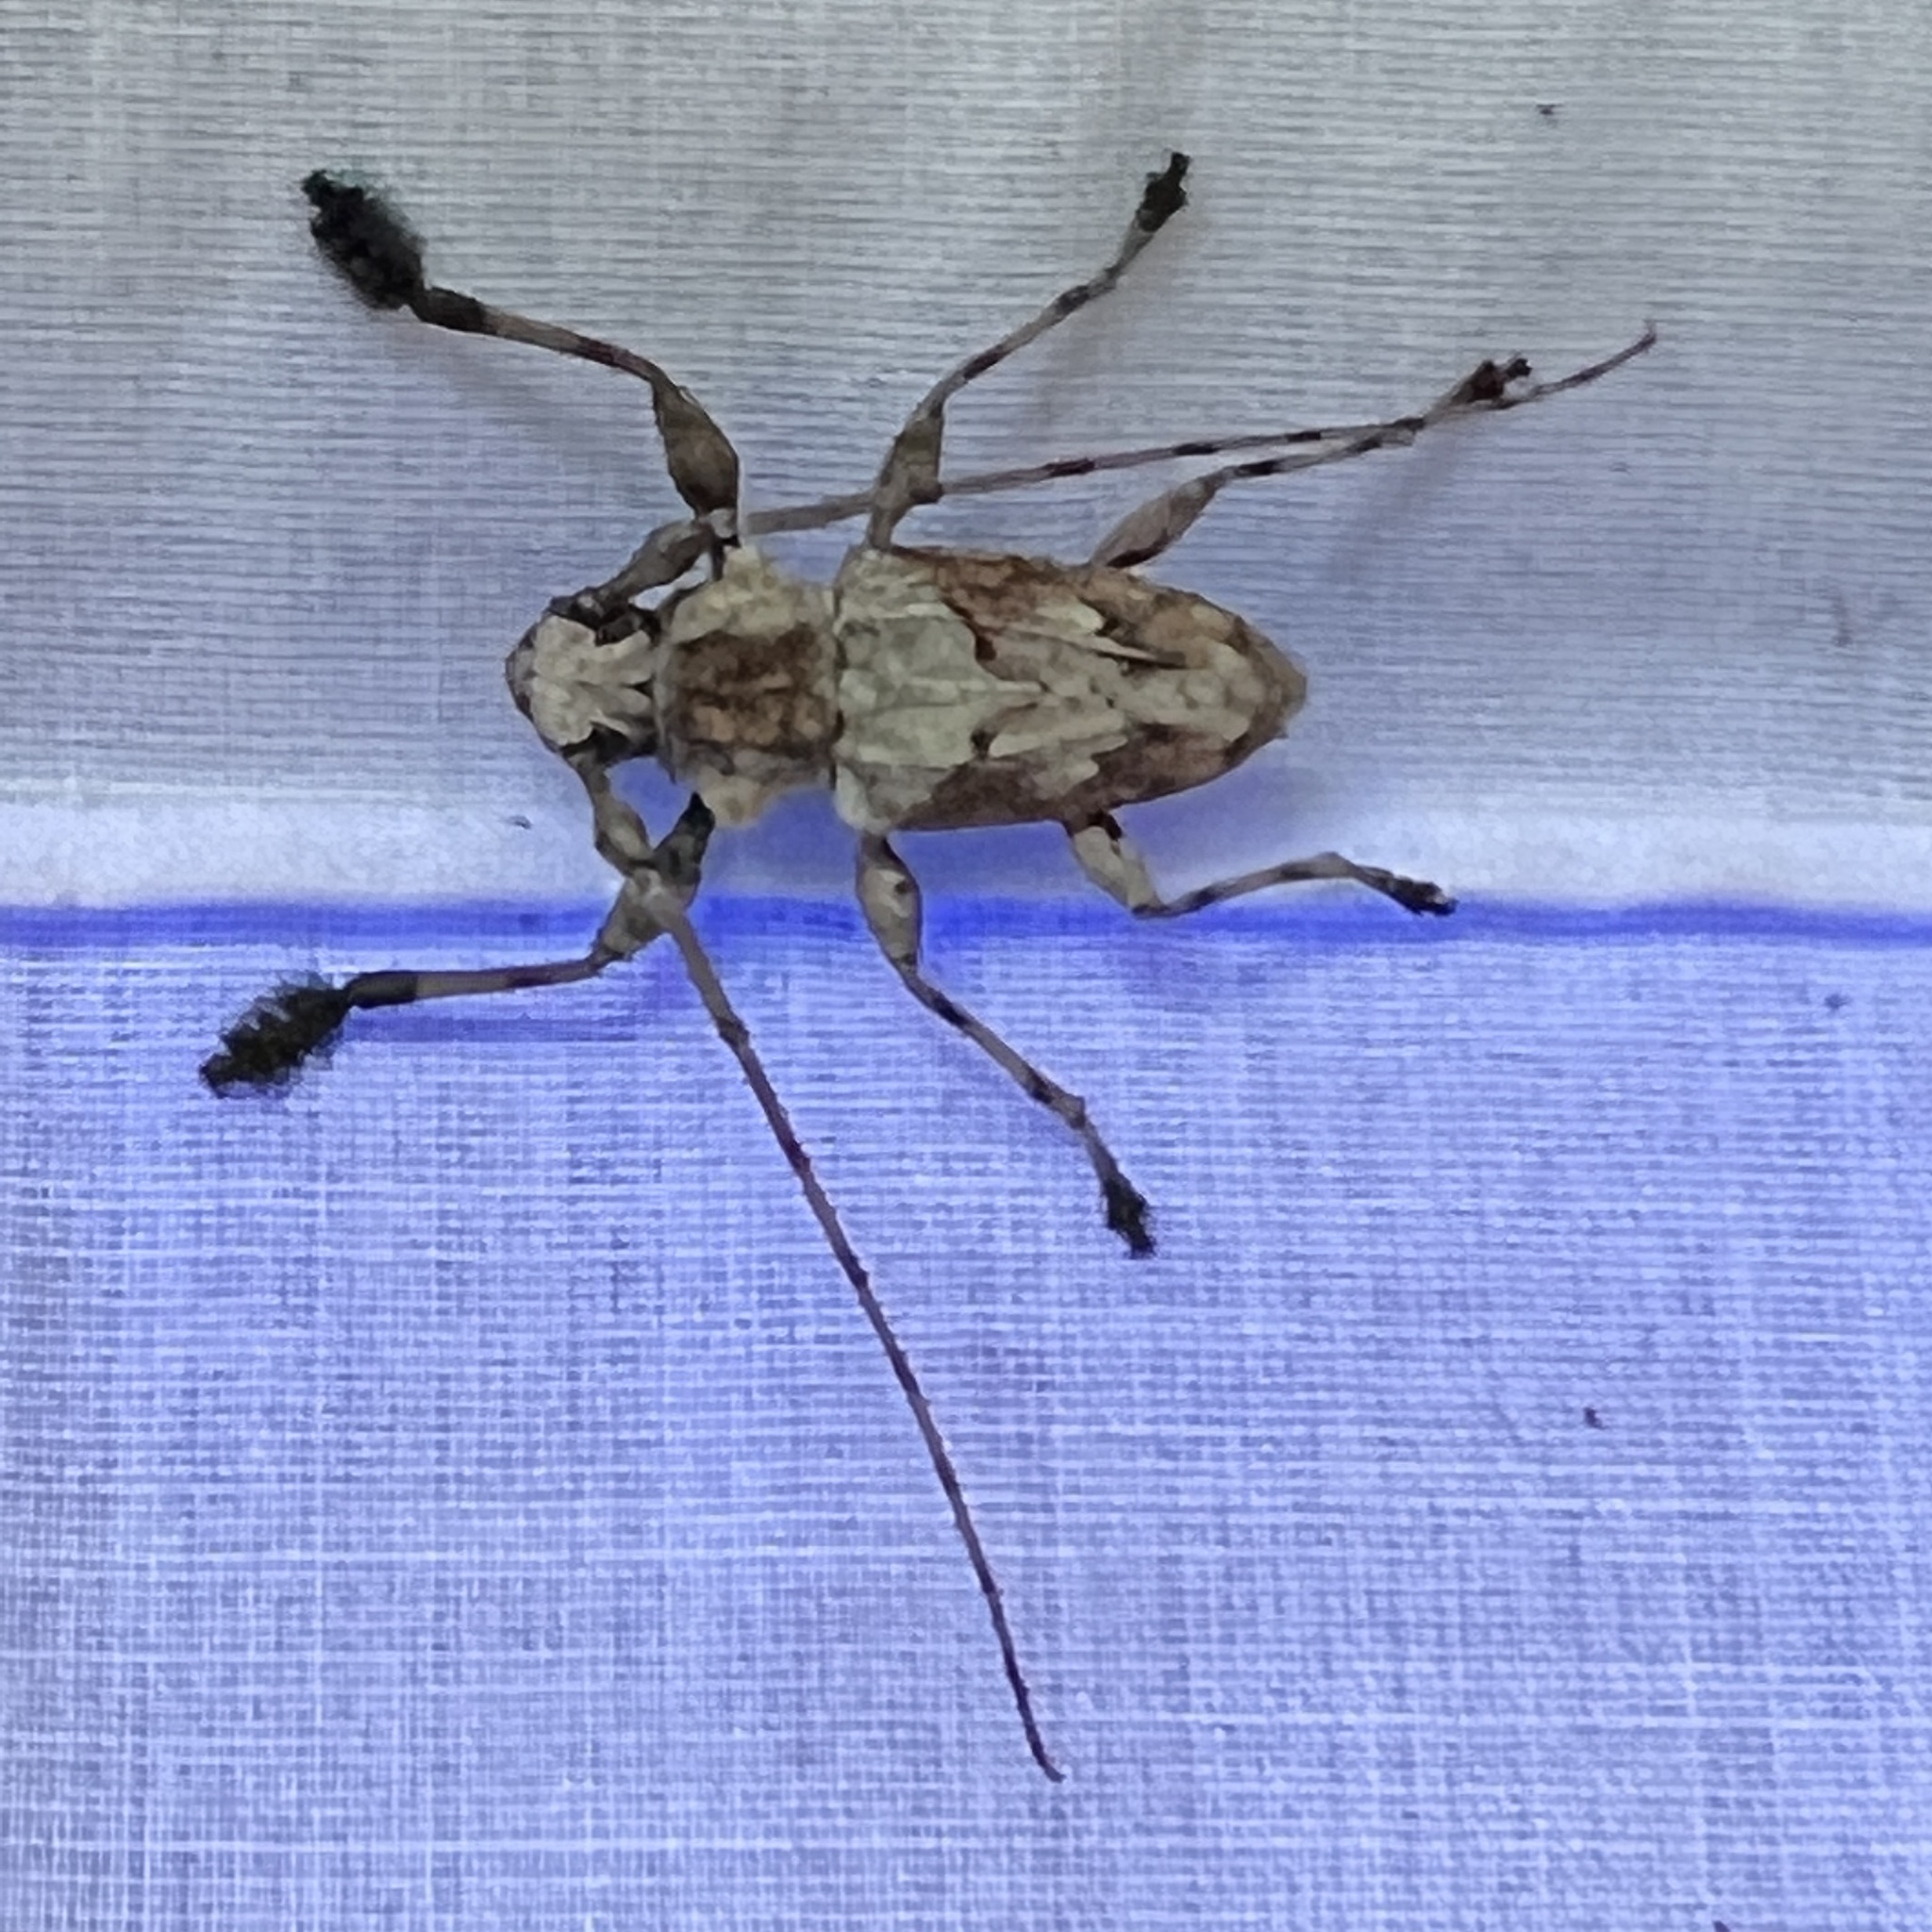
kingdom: Animalia
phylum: Arthropoda
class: Insecta
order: Coleoptera
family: Cerambycidae
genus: Lagocheirus
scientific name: Lagocheirus araneiformis
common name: Beetle
